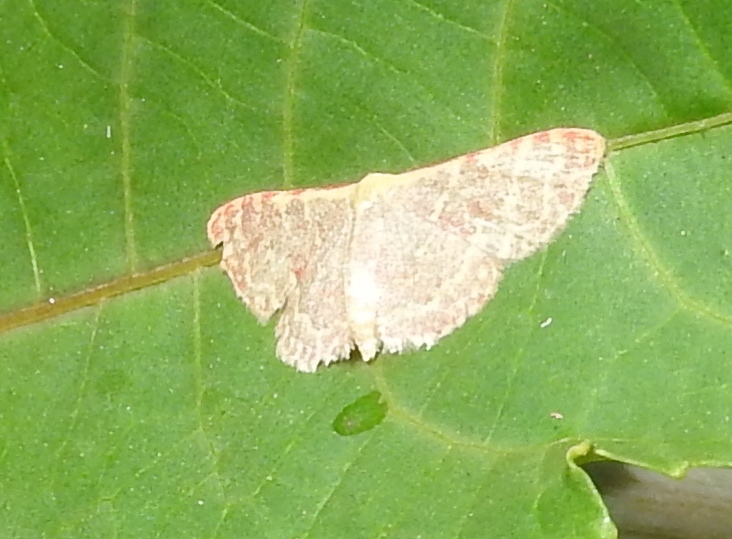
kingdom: Animalia
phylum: Arthropoda
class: Insecta
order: Lepidoptera
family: Geometridae
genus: Leptostales
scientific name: Leptostales
